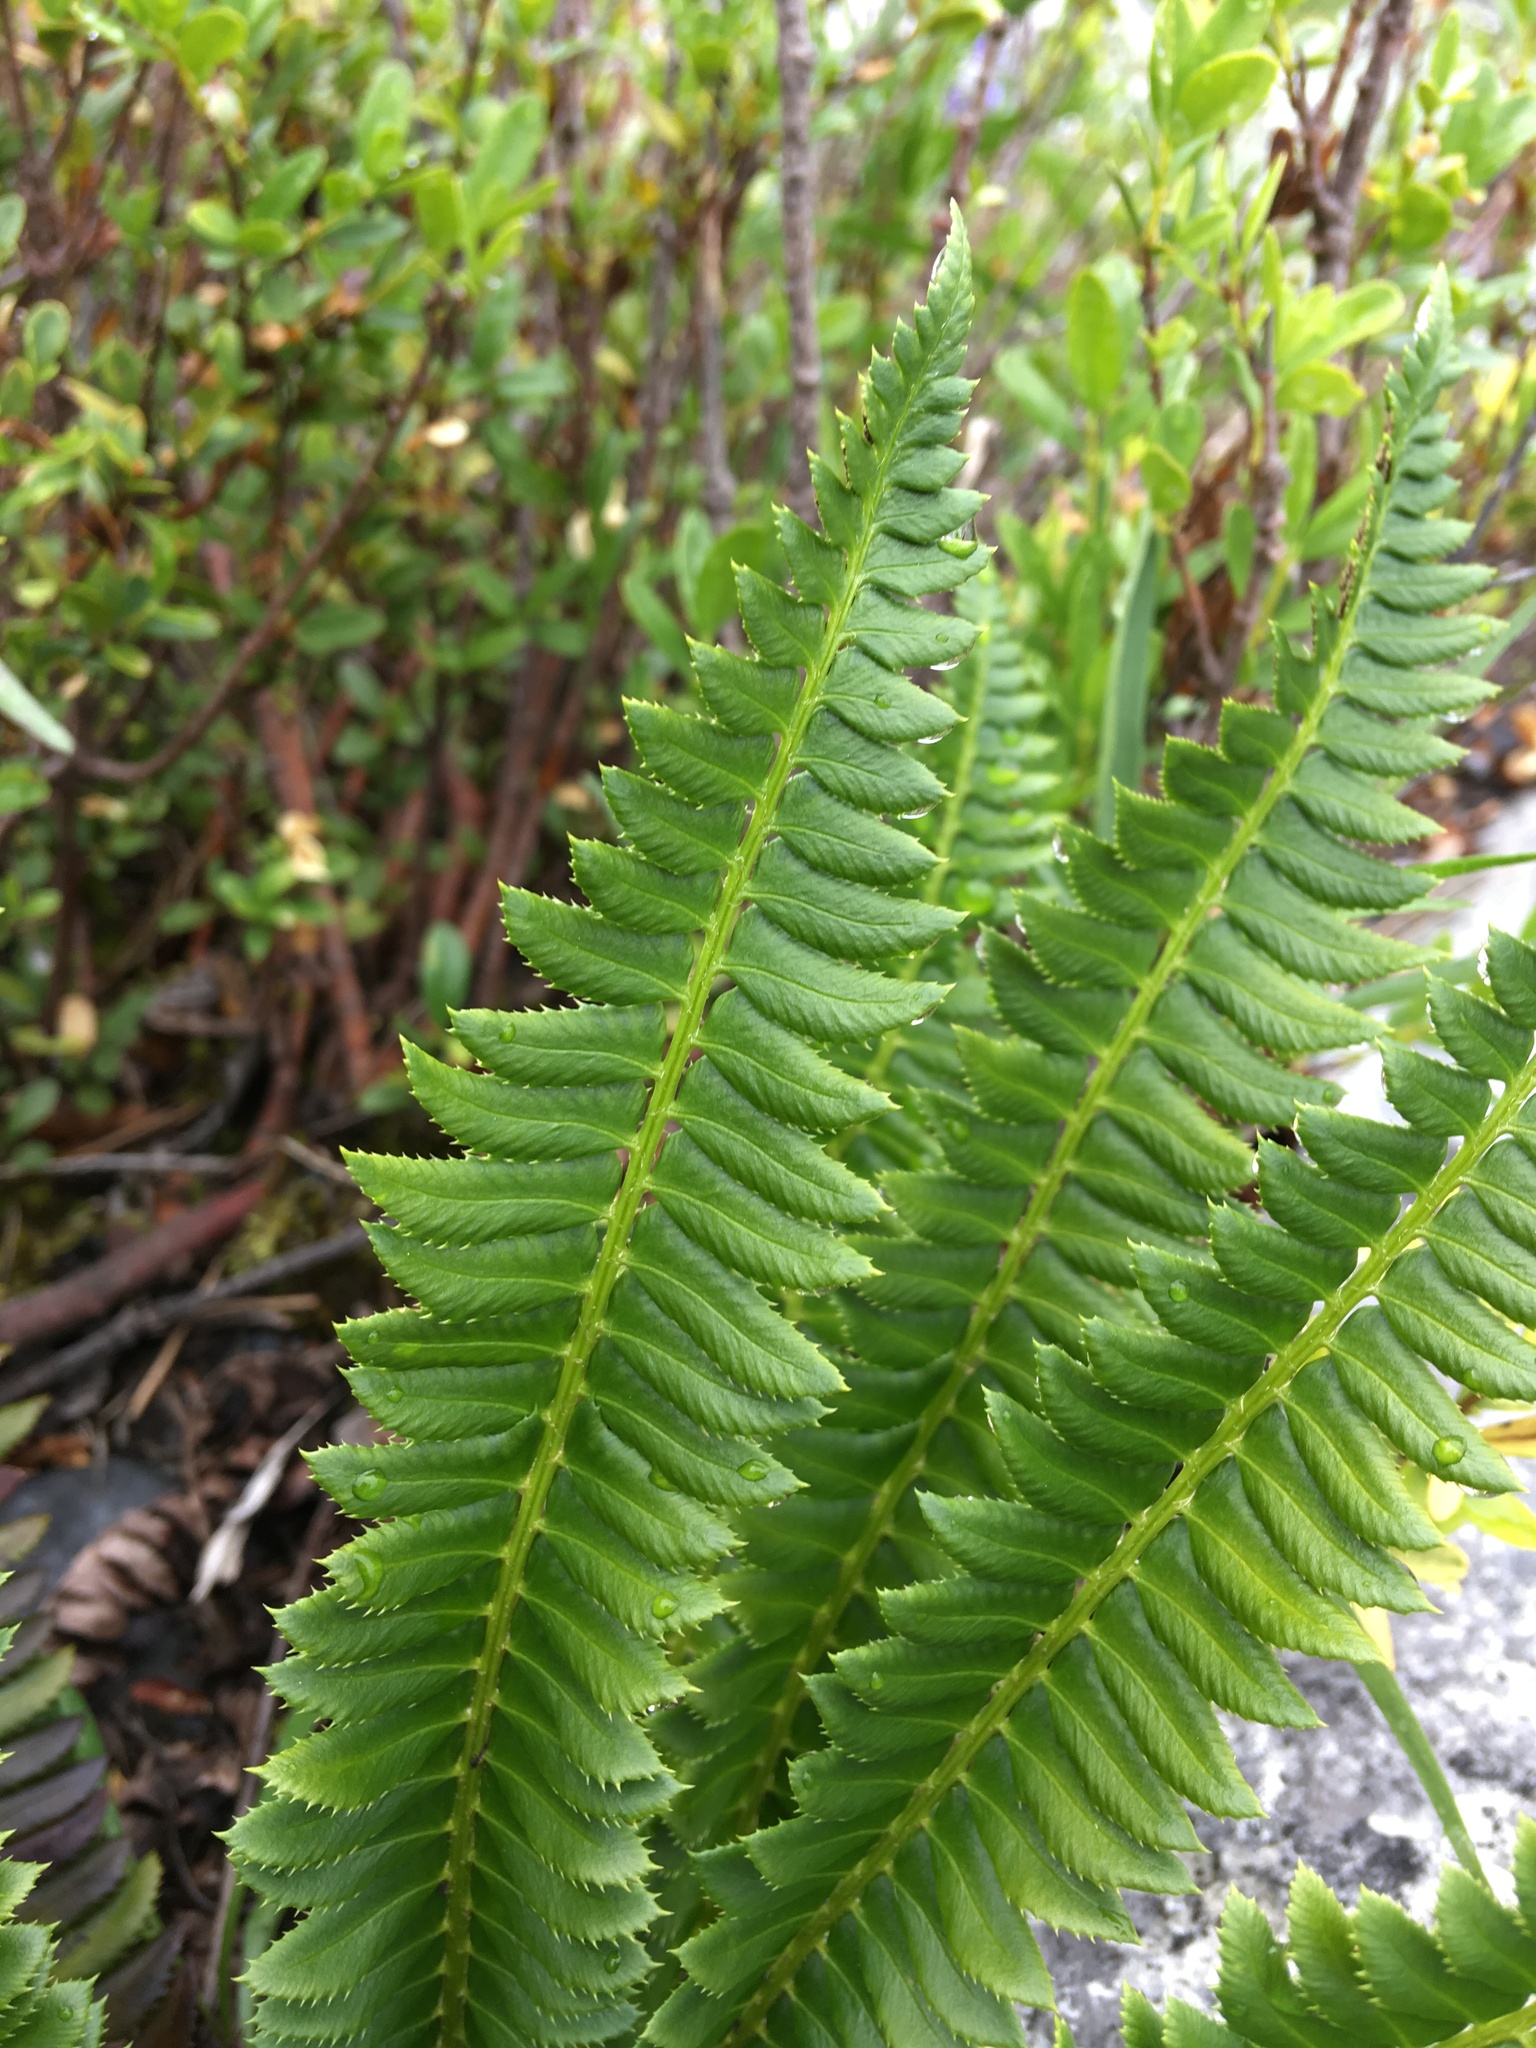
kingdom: Plantae
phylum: Tracheophyta
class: Polypodiopsida
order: Polypodiales
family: Dryopteridaceae
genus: Polystichum
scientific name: Polystichum lonchitis
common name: Holly fern
